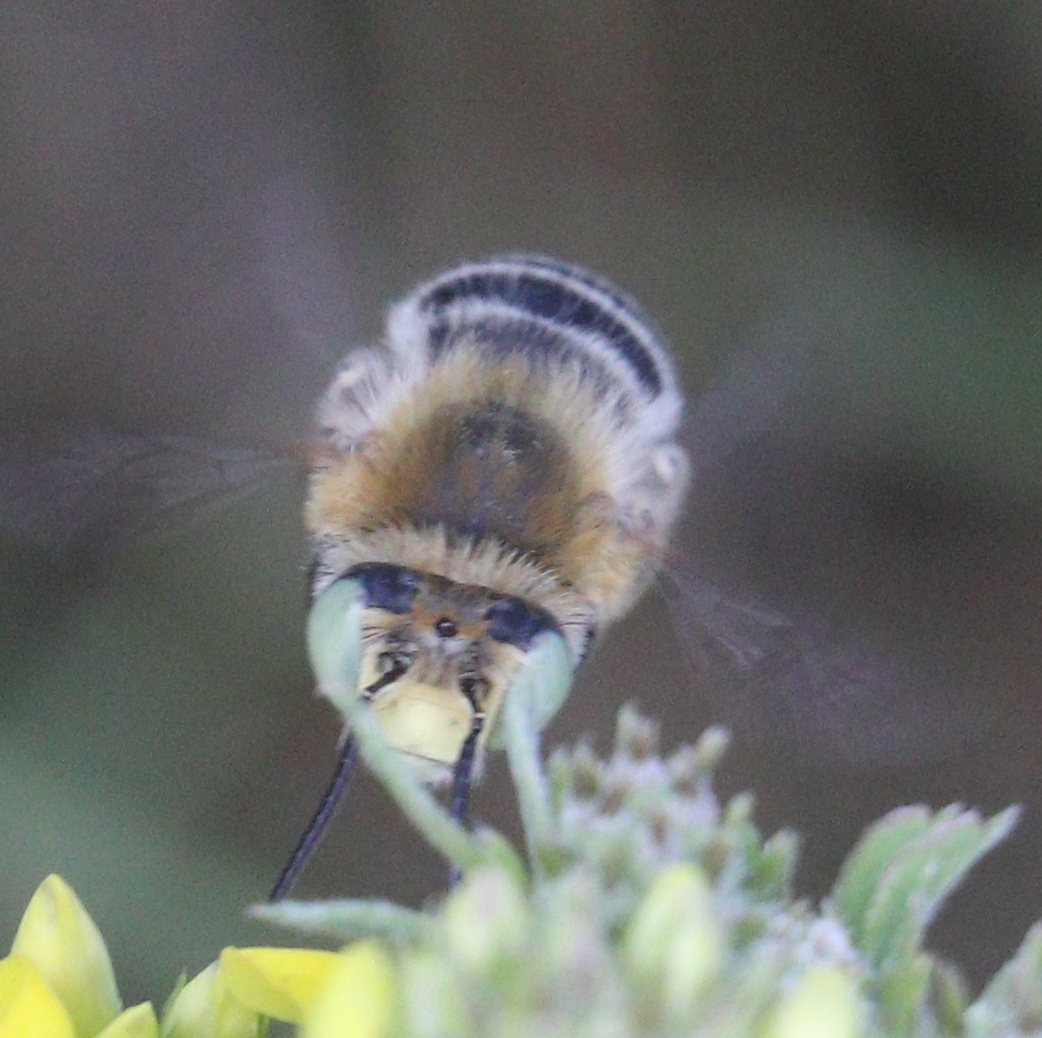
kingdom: Animalia
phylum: Arthropoda
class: Insecta
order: Hymenoptera
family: Apidae
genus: Anthophora
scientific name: Anthophora bimaculata
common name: Green-eyed flower bee
